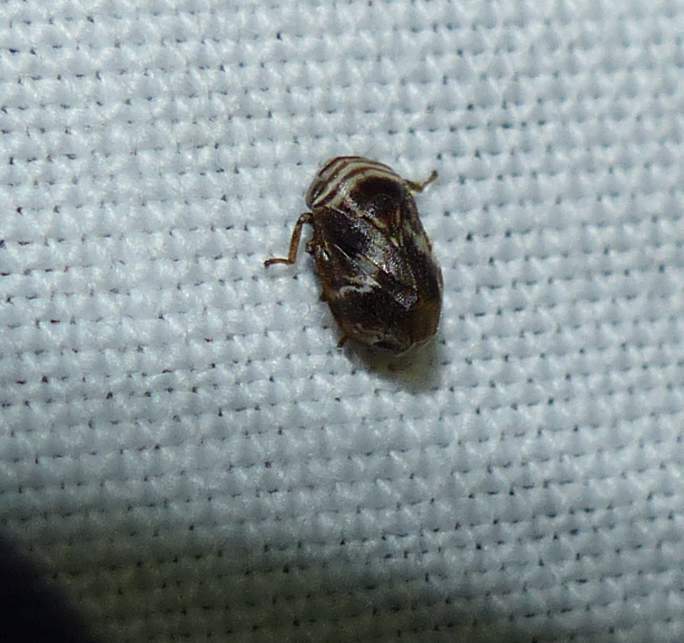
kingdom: Animalia
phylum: Arthropoda
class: Insecta
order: Hemiptera
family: Clastopteridae
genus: Clastoptera
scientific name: Clastoptera obtusa
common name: Alder spittlebug
